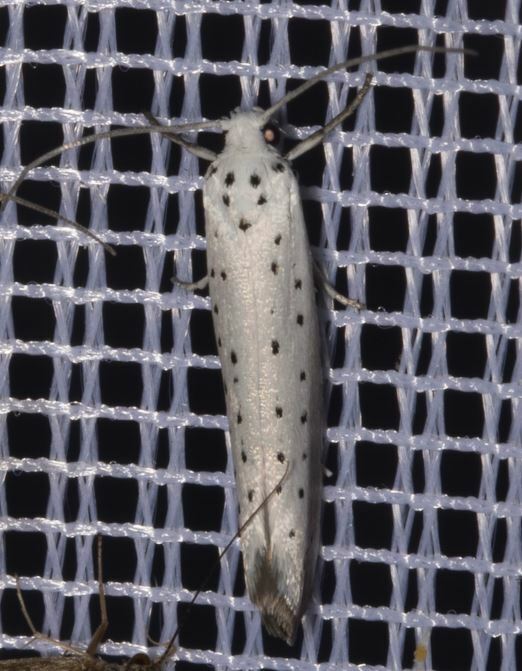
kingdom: Animalia
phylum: Arthropoda
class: Insecta
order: Lepidoptera
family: Yponomeutidae
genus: Yponomeuta
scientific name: Yponomeuta padella
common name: Orchard ermine
